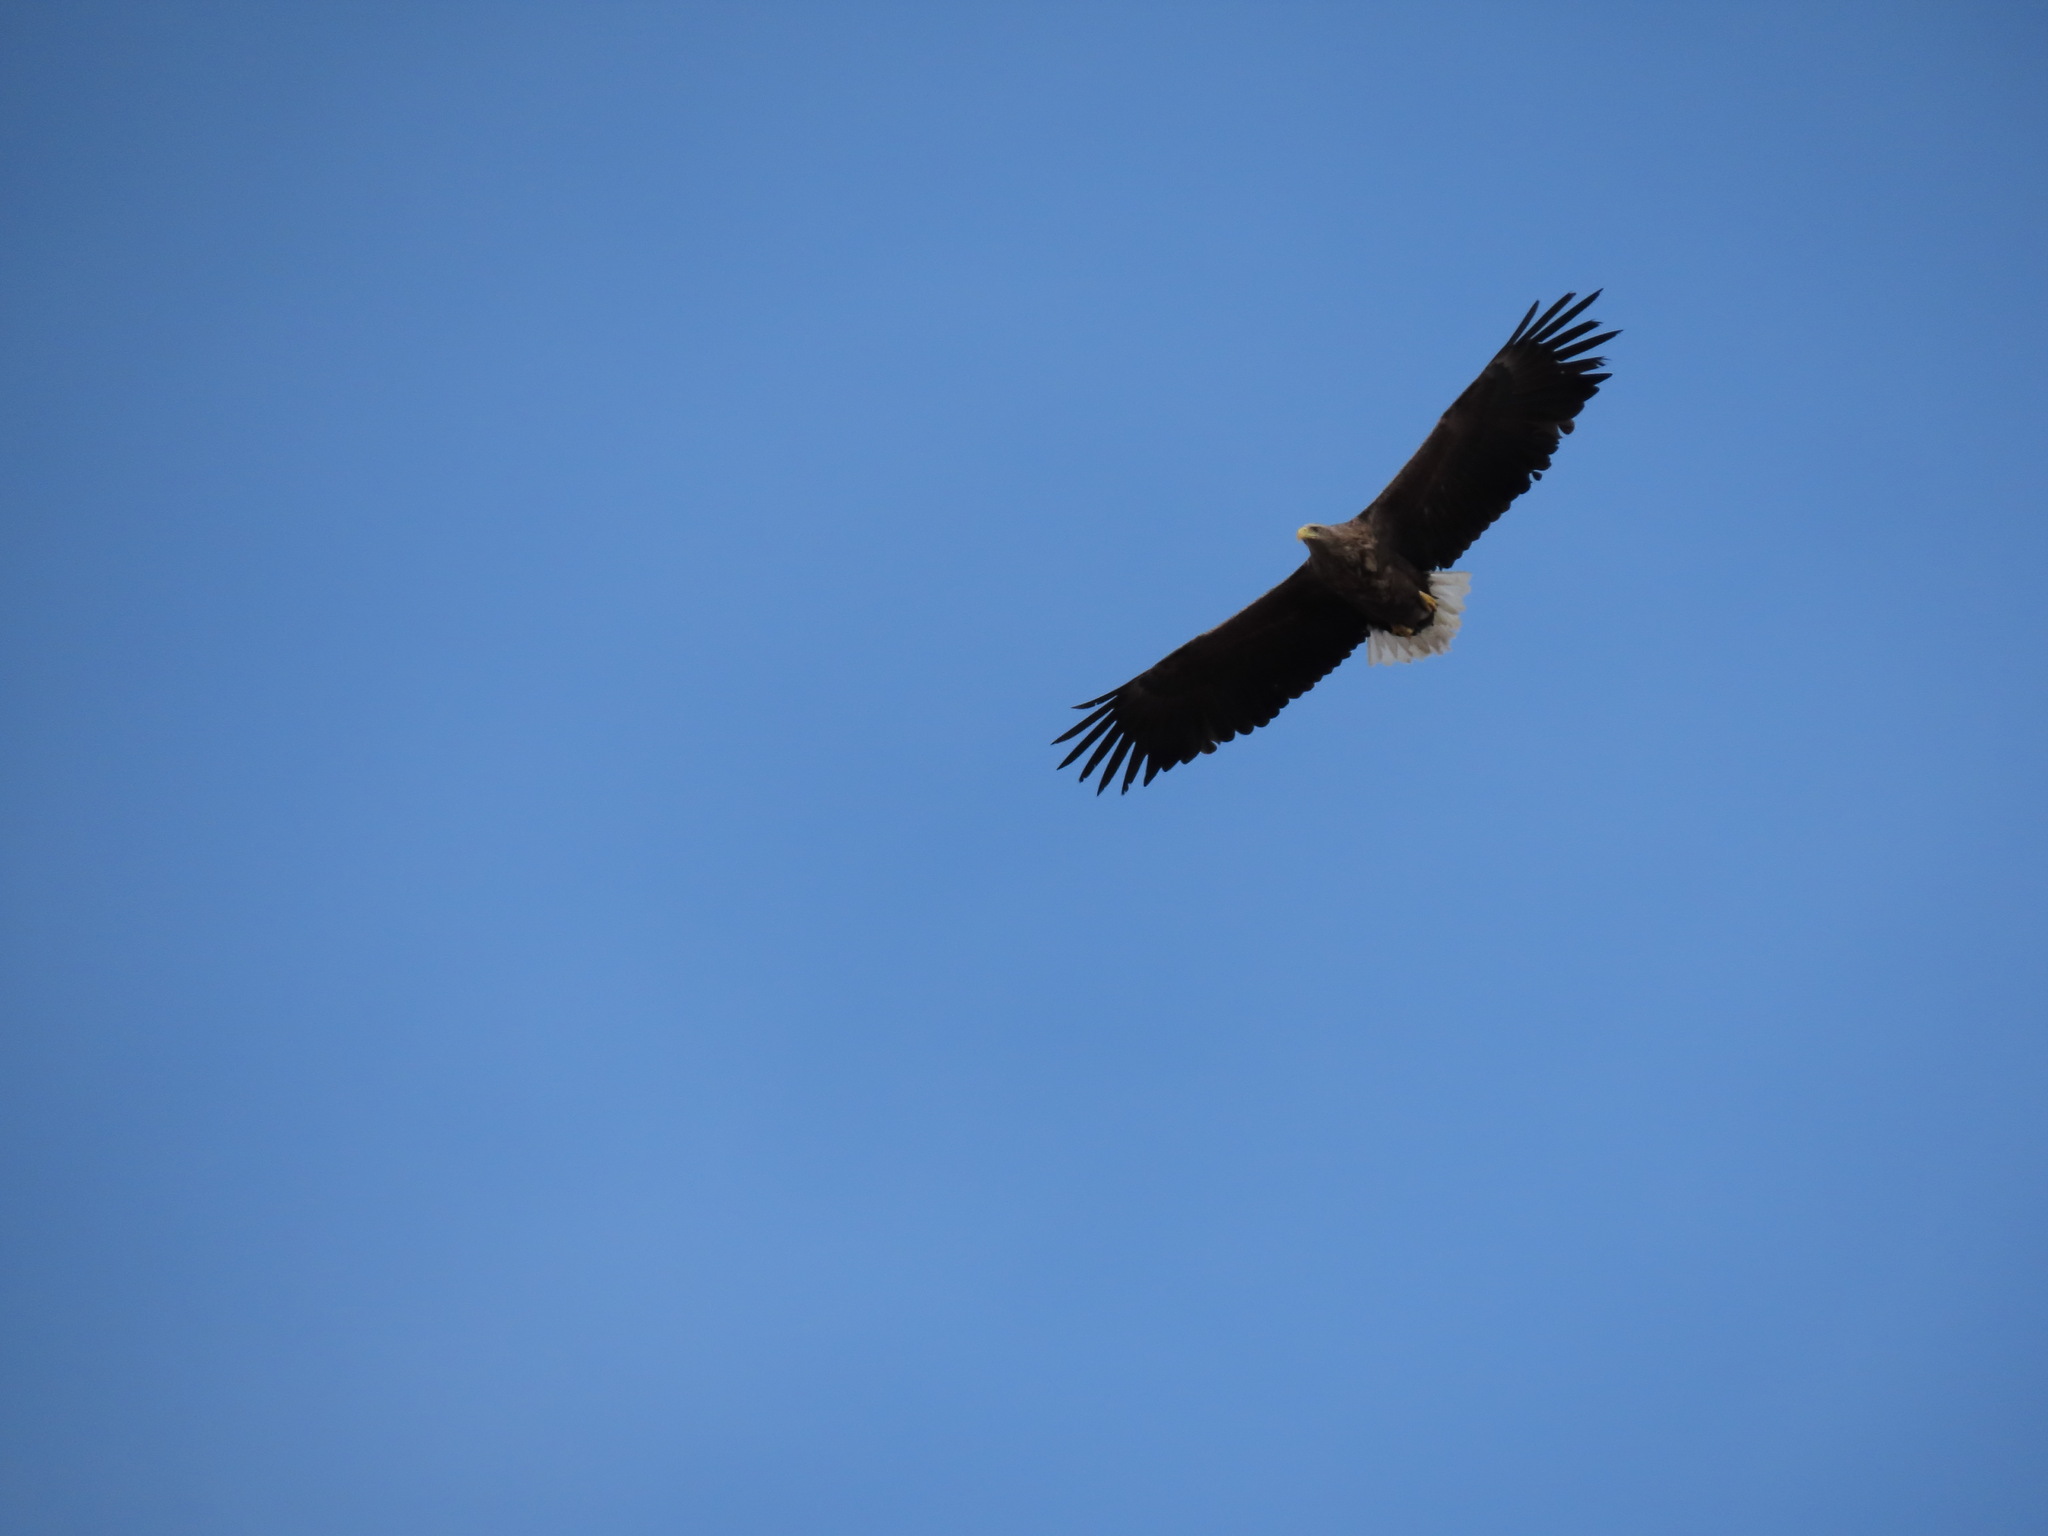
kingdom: Animalia
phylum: Chordata
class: Aves
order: Accipitriformes
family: Accipitridae
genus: Haliaeetus
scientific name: Haliaeetus albicilla
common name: White-tailed eagle
